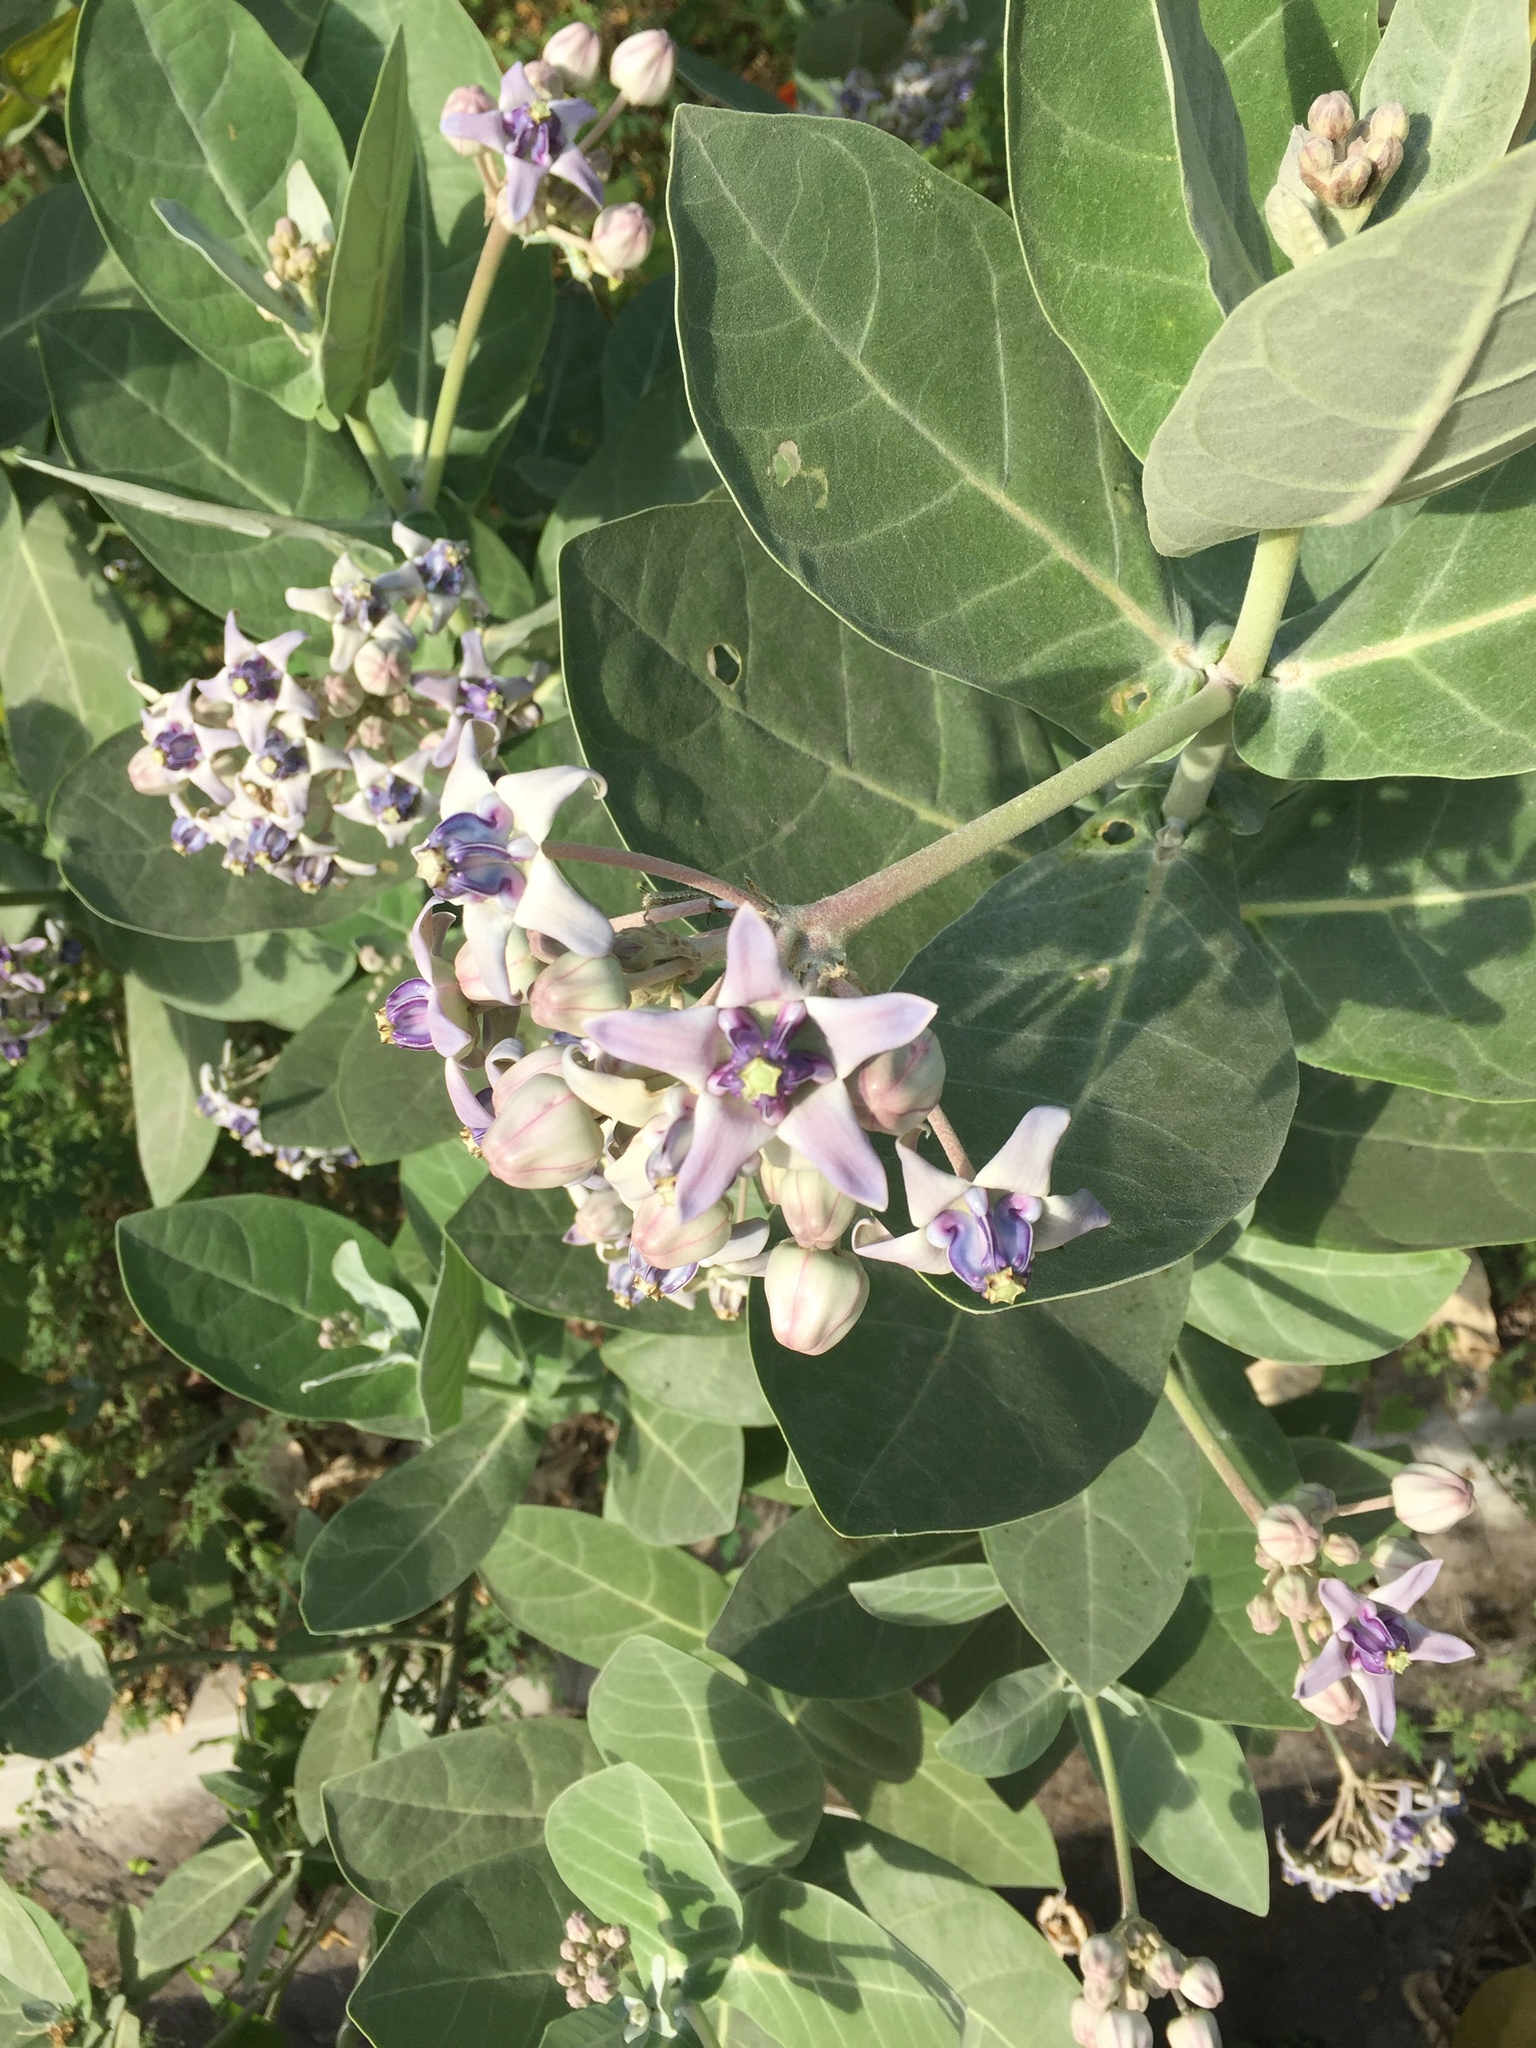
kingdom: Plantae
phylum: Tracheophyta
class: Magnoliopsida
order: Gentianales
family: Apocynaceae
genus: Calotropis
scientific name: Calotropis gigantea
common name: Crown flower
